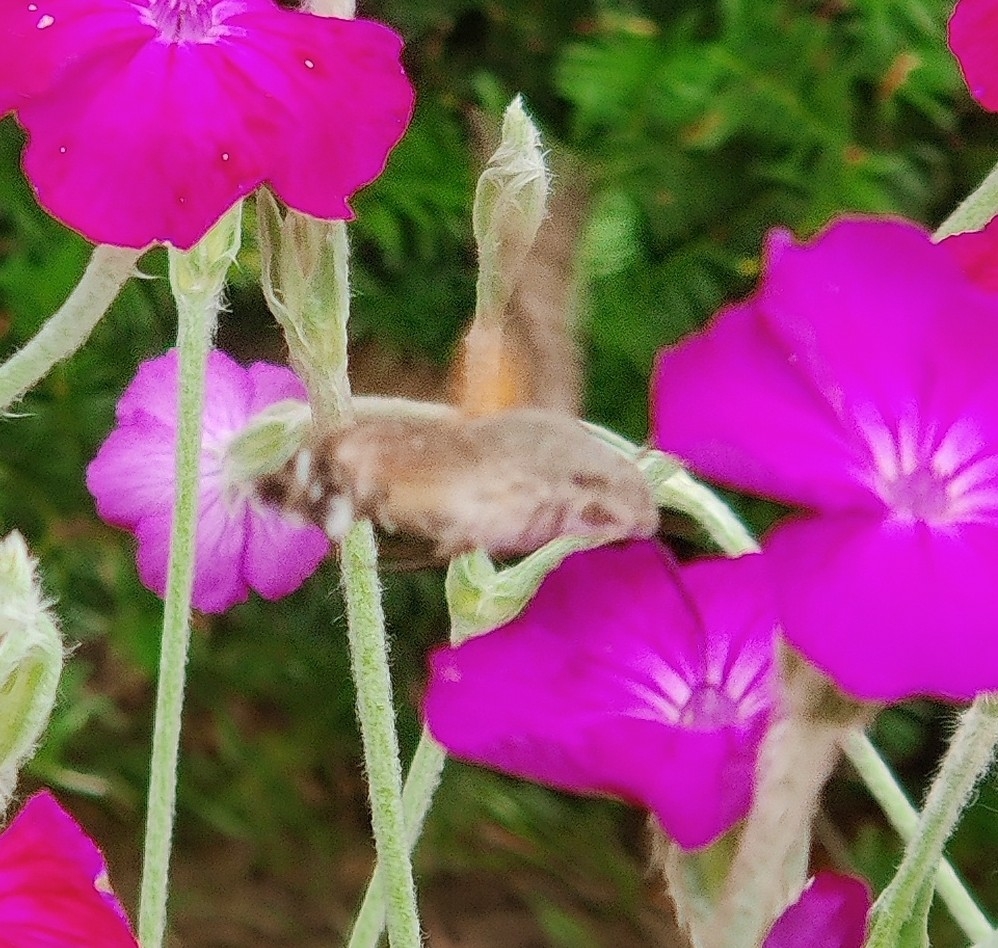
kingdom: Animalia
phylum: Arthropoda
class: Insecta
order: Lepidoptera
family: Sphingidae
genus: Macroglossum
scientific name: Macroglossum stellatarum
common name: Humming-bird hawk-moth
